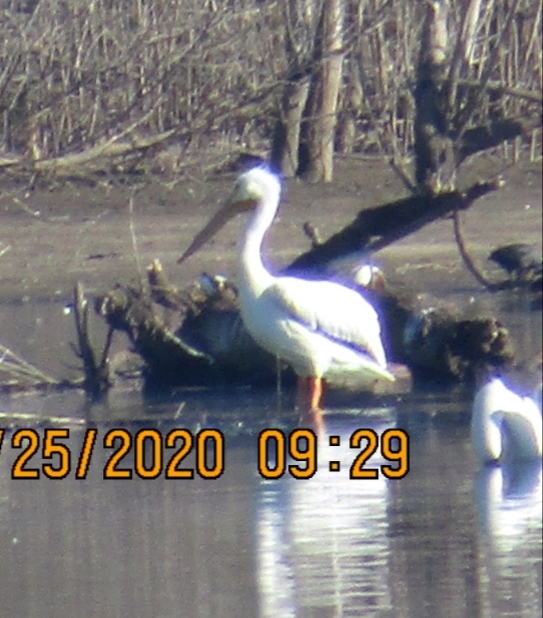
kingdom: Animalia
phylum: Chordata
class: Aves
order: Pelecaniformes
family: Pelecanidae
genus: Pelecanus
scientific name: Pelecanus erythrorhynchos
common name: American white pelican
